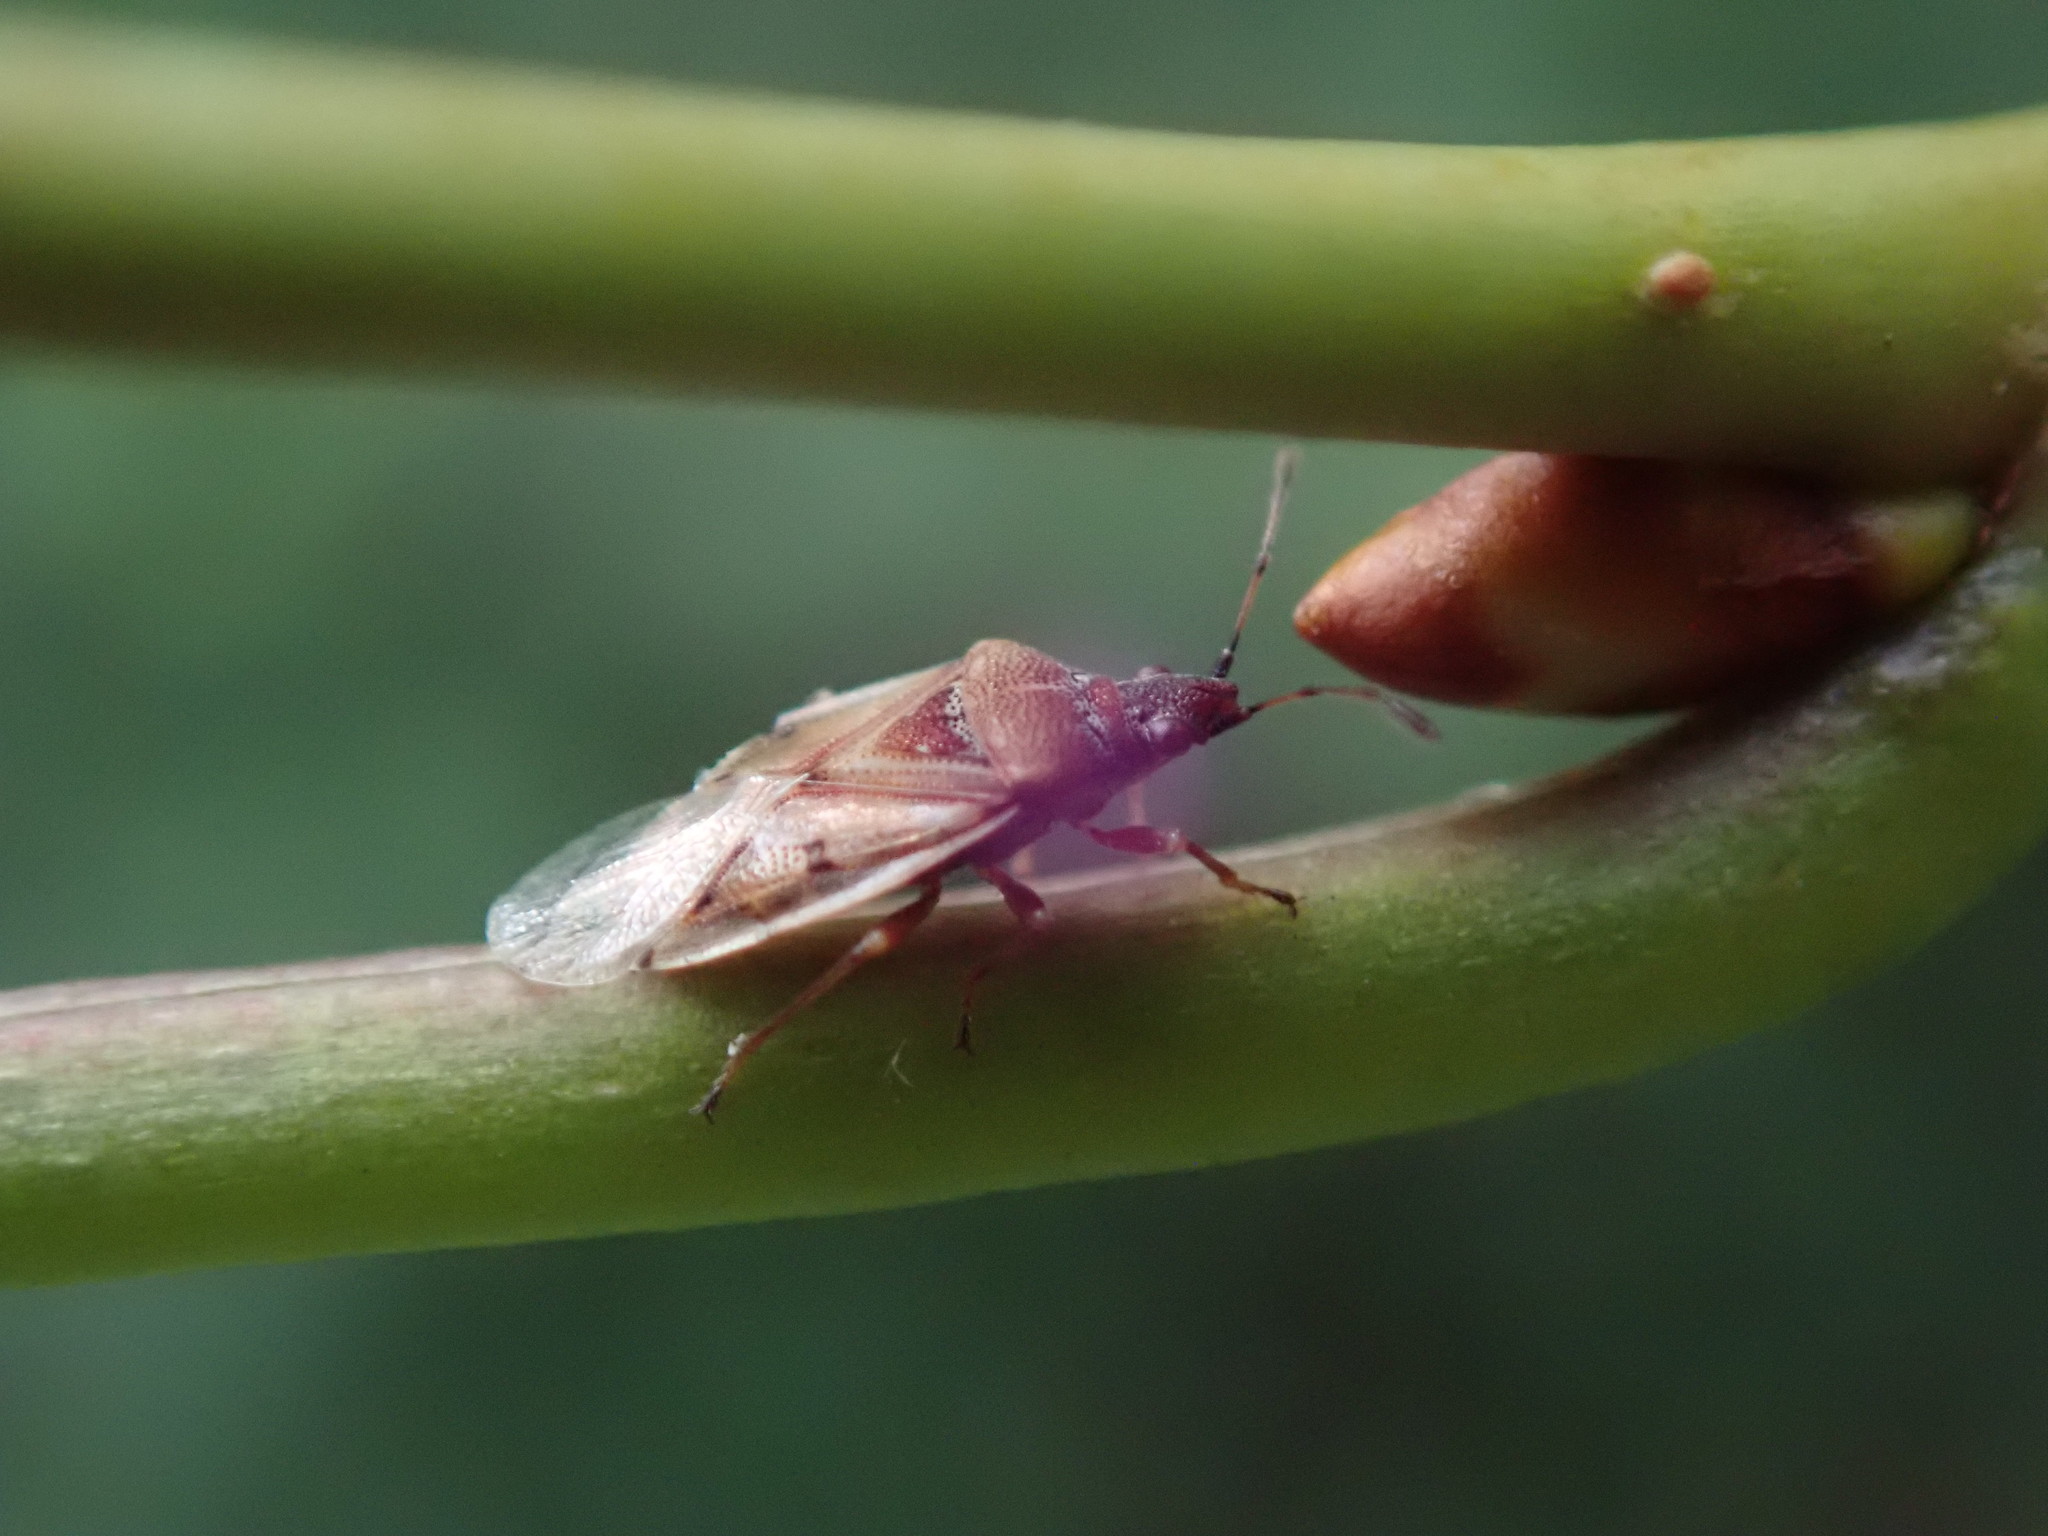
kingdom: Animalia
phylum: Arthropoda
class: Insecta
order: Hemiptera
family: Lygaeidae
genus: Kleidocerys
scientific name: Kleidocerys resedae
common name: Birch catkin bug
